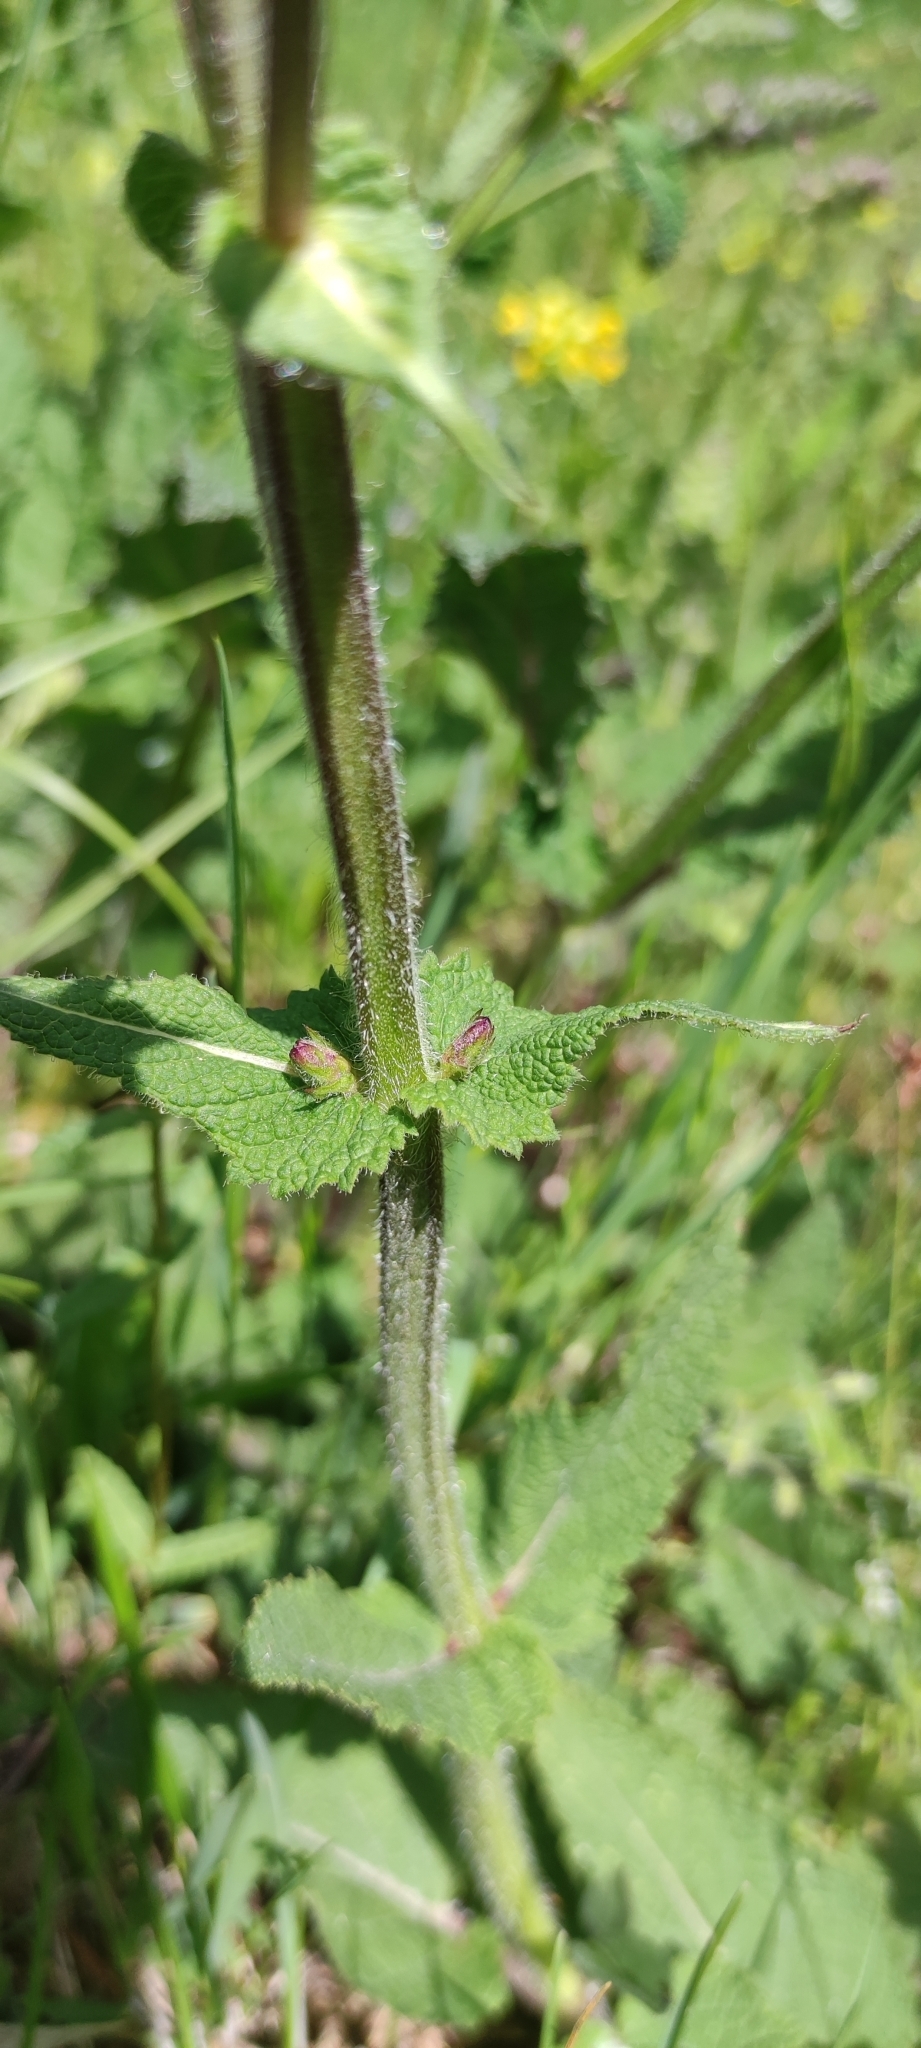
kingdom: Plantae
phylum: Tracheophyta
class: Magnoliopsida
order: Lamiales
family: Lamiaceae
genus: Salvia
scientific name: Salvia pratensis
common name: Meadow sage
